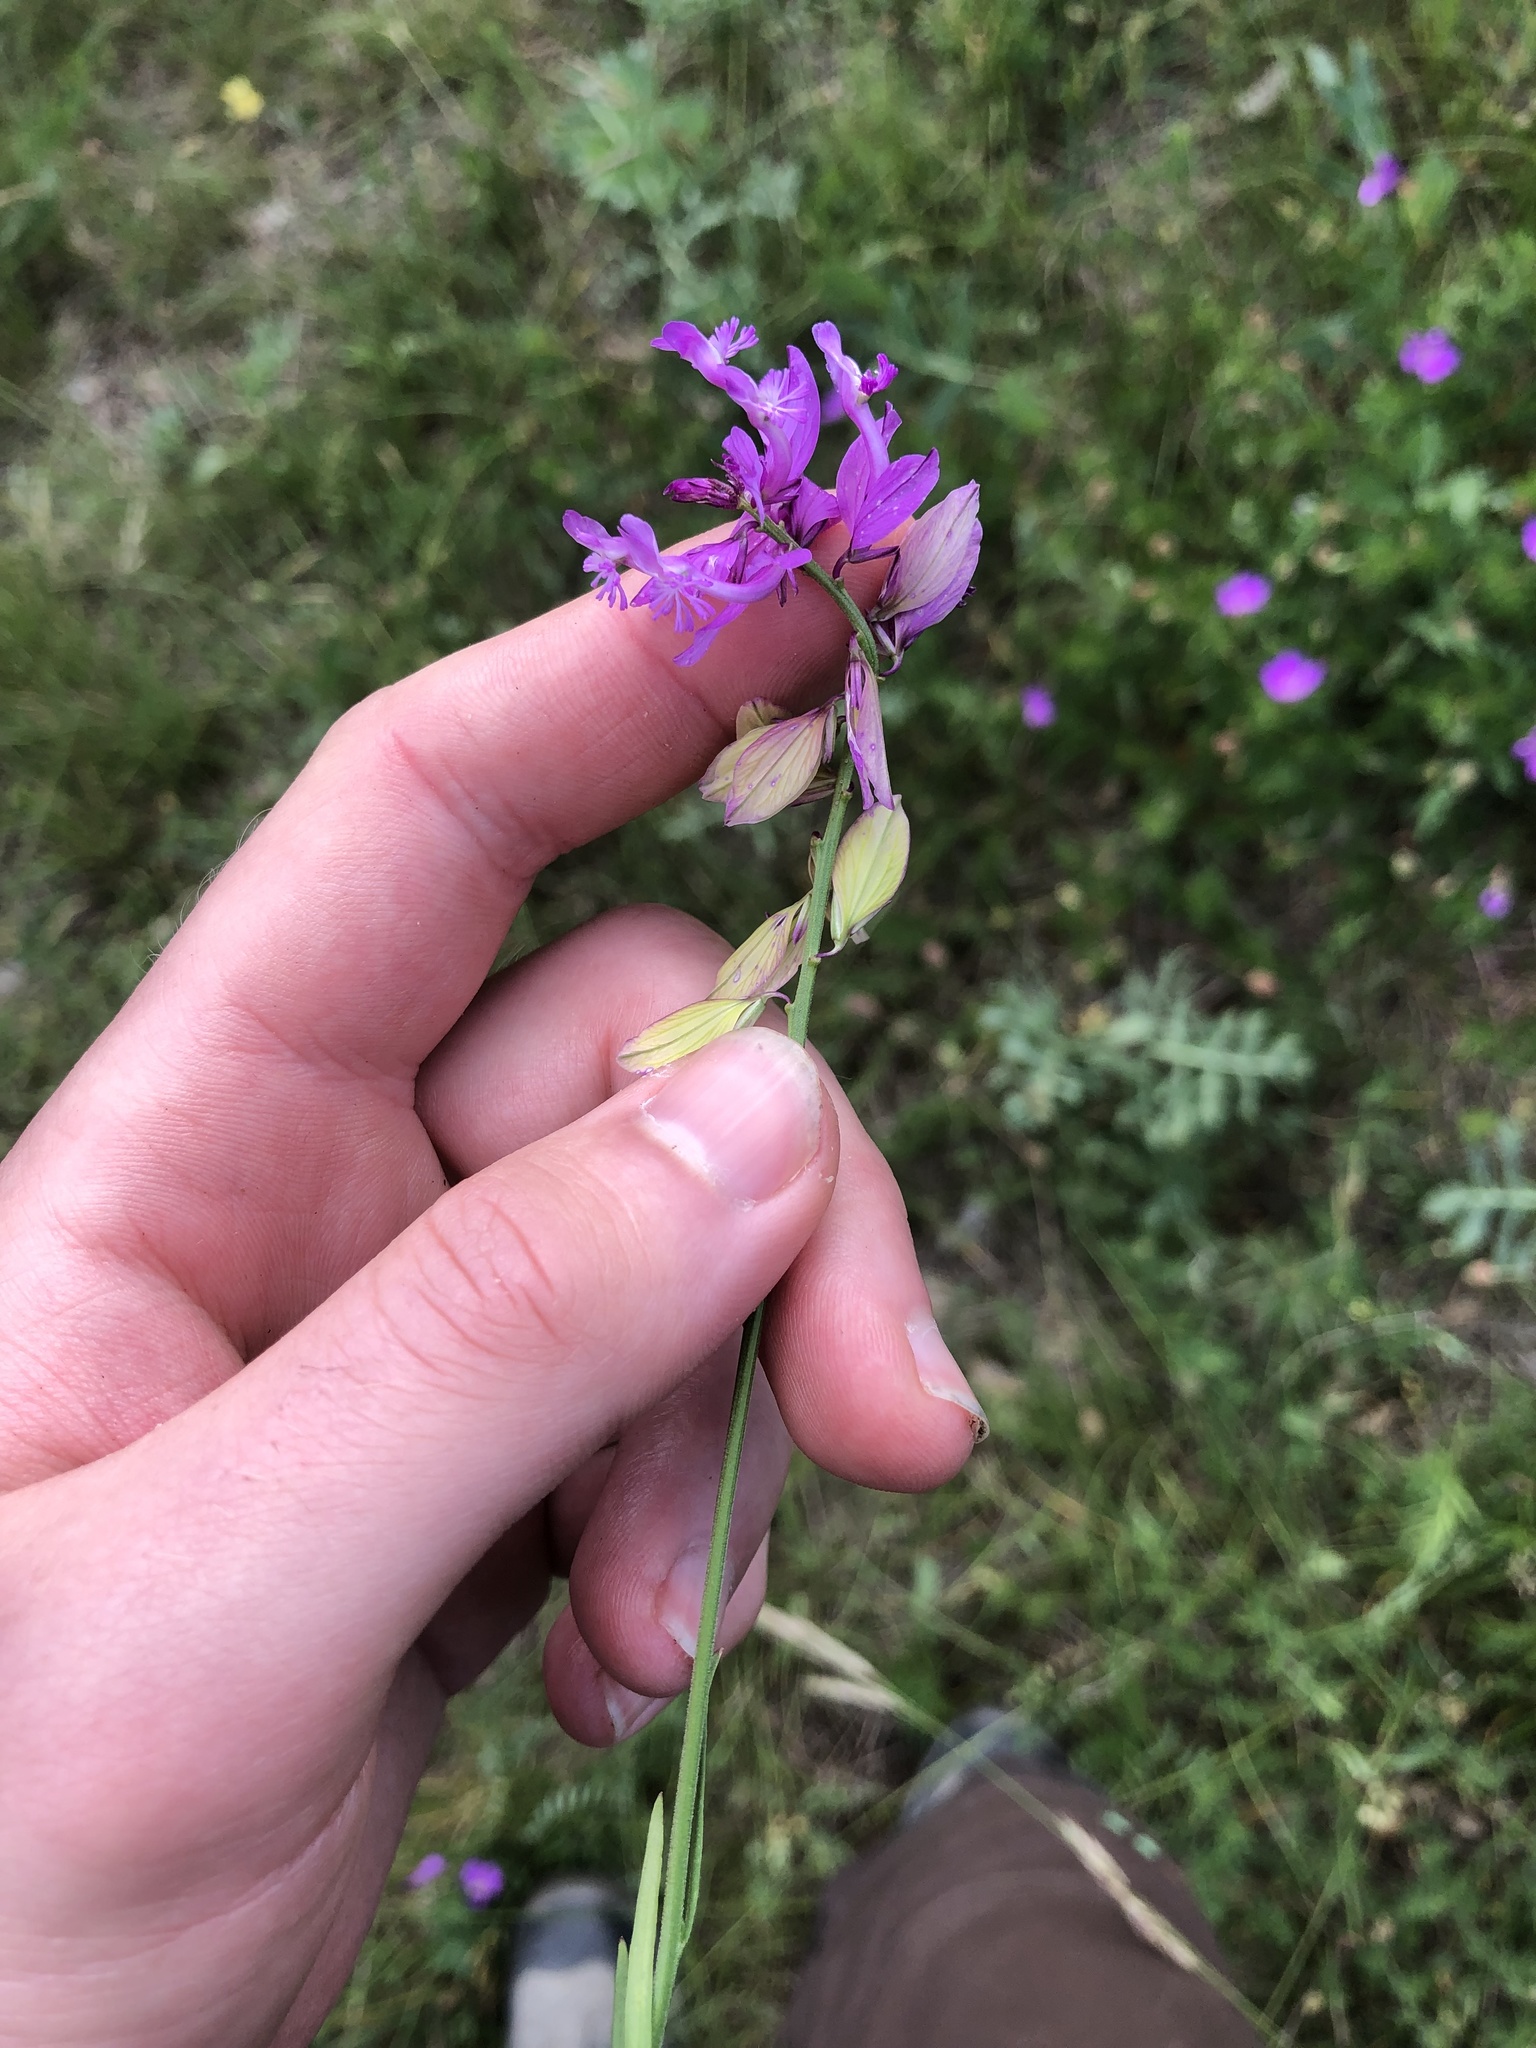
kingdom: Plantae
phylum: Tracheophyta
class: Magnoliopsida
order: Fabales
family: Polygalaceae
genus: Polygala
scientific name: Polygala major
